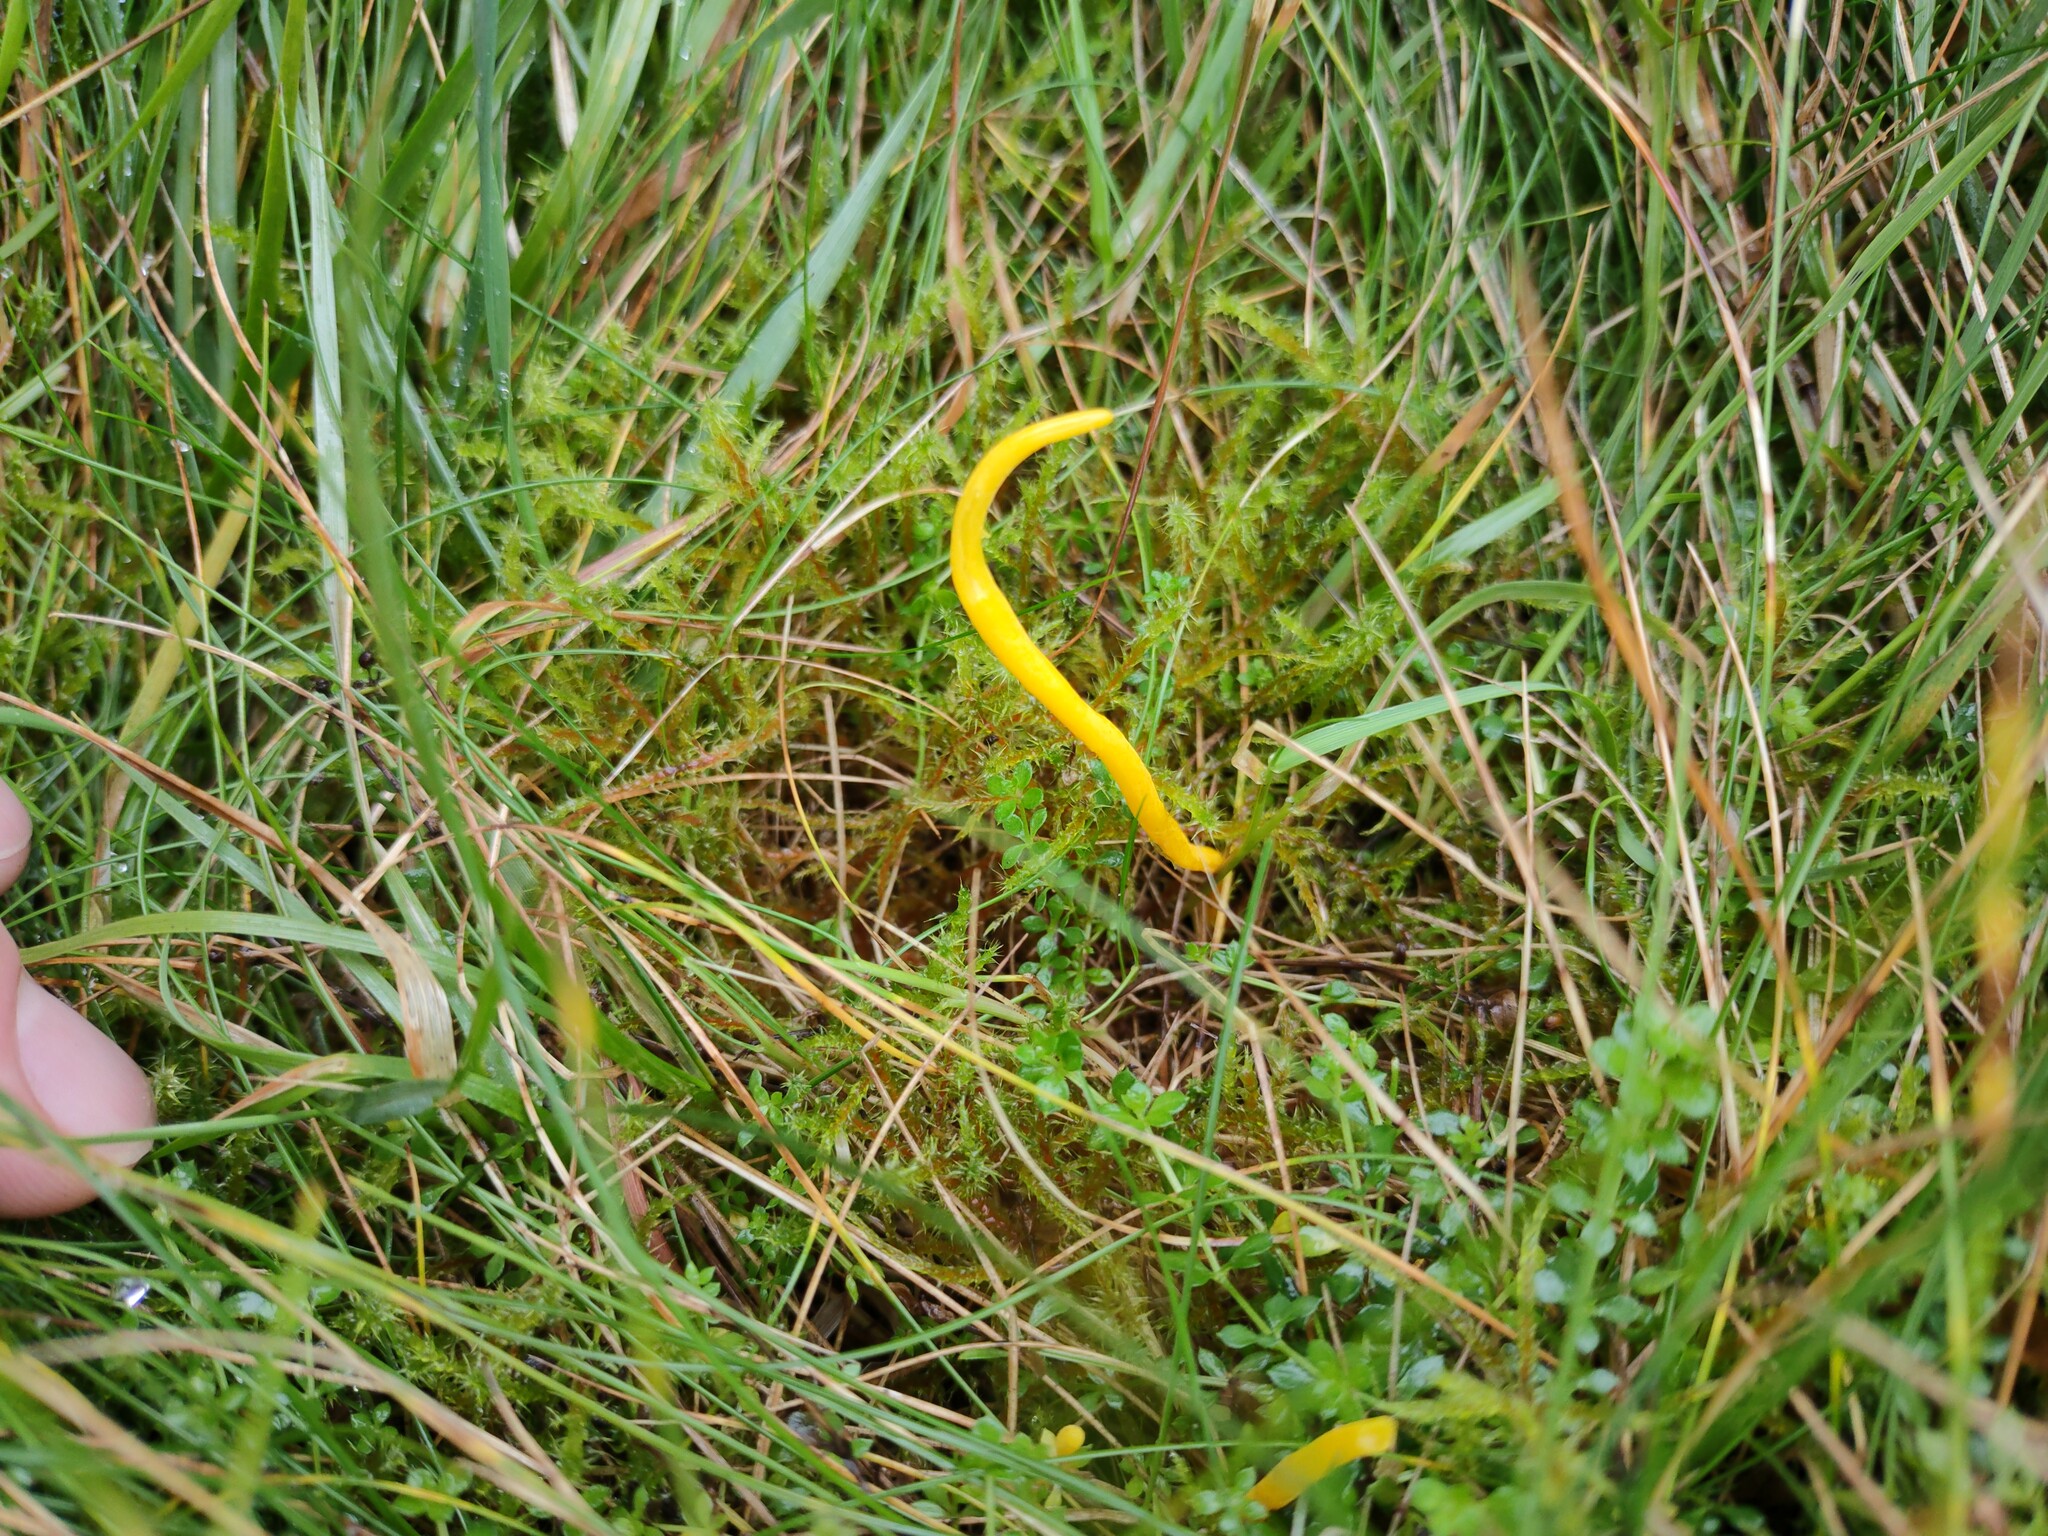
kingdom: Fungi
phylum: Basidiomycota
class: Agaricomycetes
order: Agaricales
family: Clavariaceae
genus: Clavulinopsis
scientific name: Clavulinopsis helvola
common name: Yellow club
